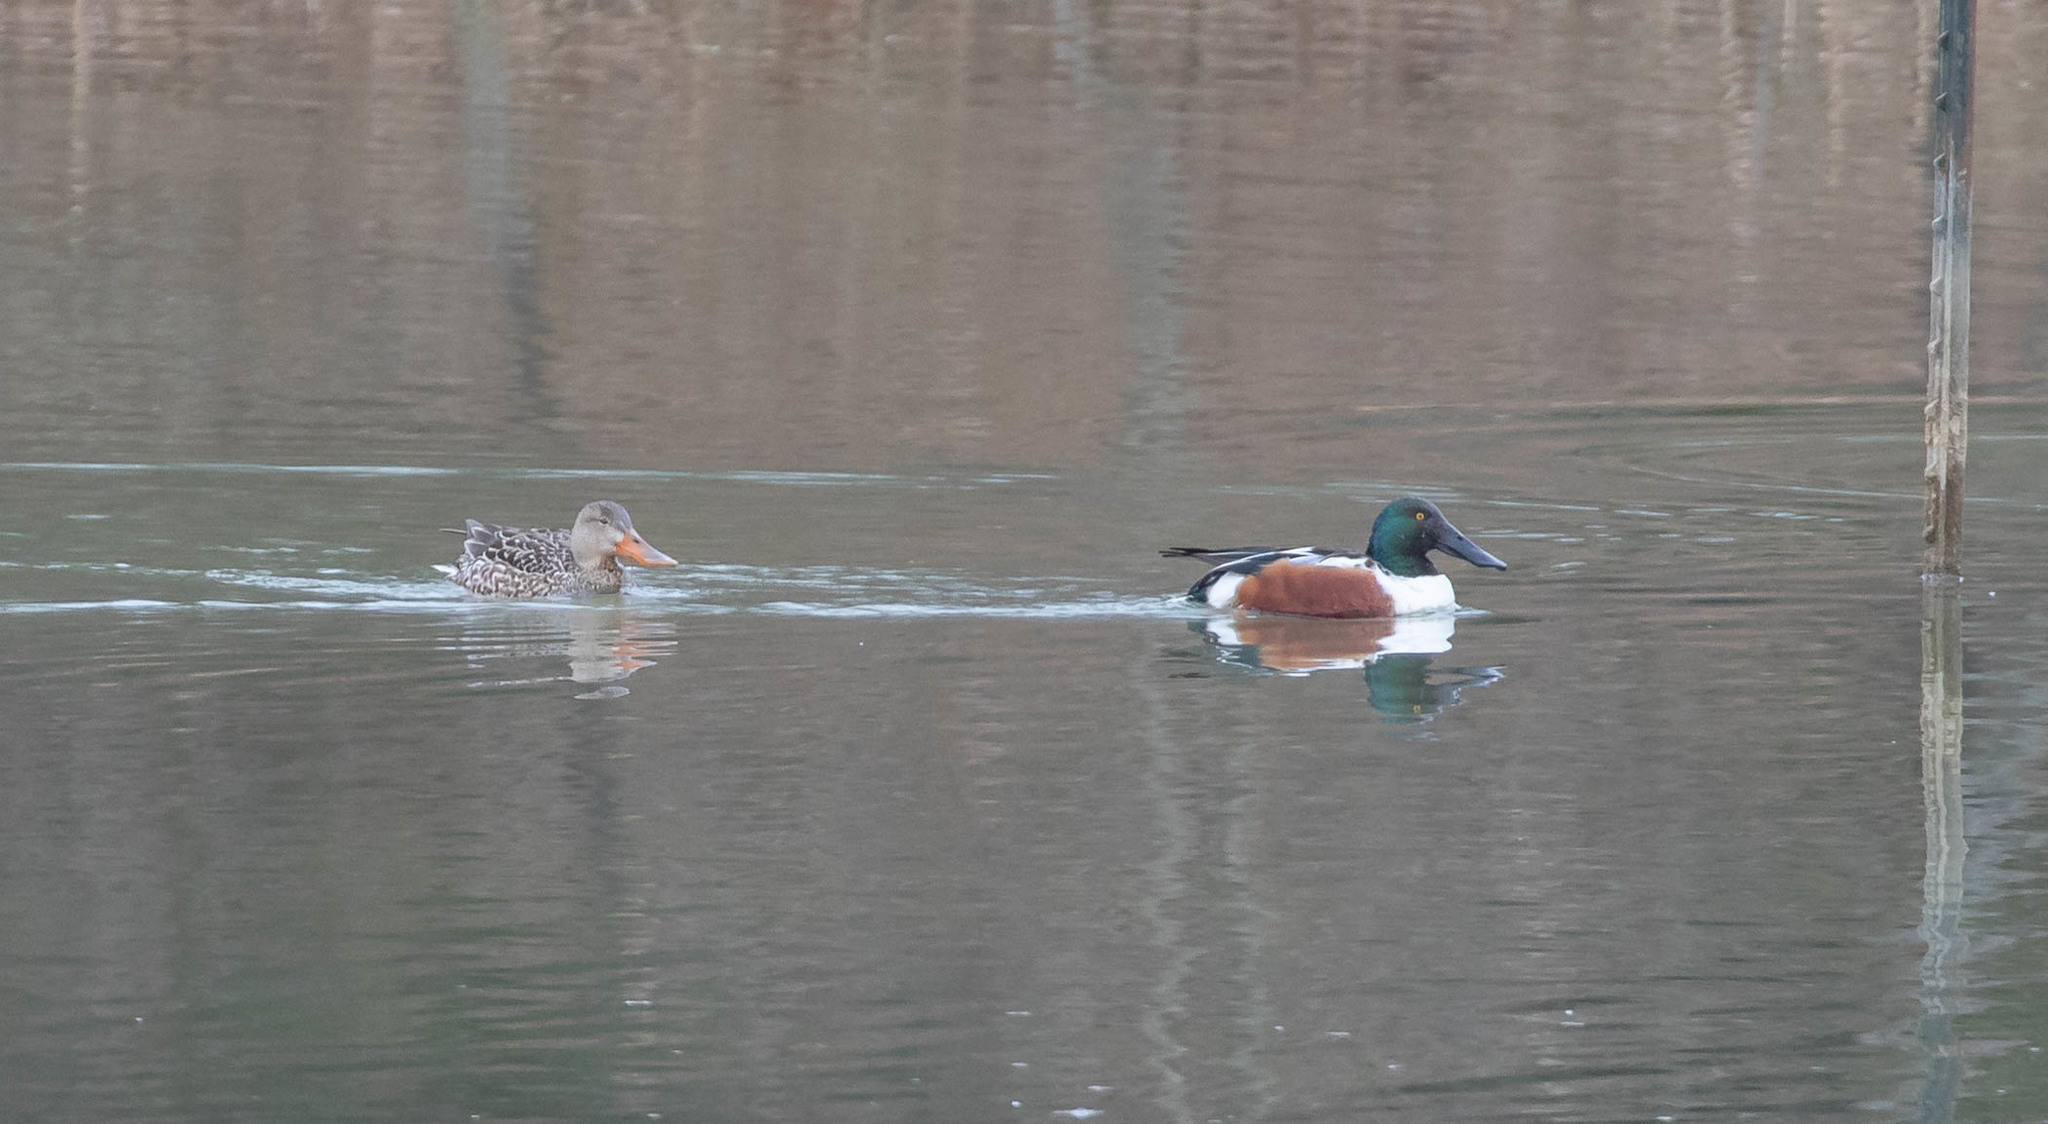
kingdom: Animalia
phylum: Chordata
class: Aves
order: Anseriformes
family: Anatidae
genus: Spatula
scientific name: Spatula clypeata
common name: Northern shoveler
